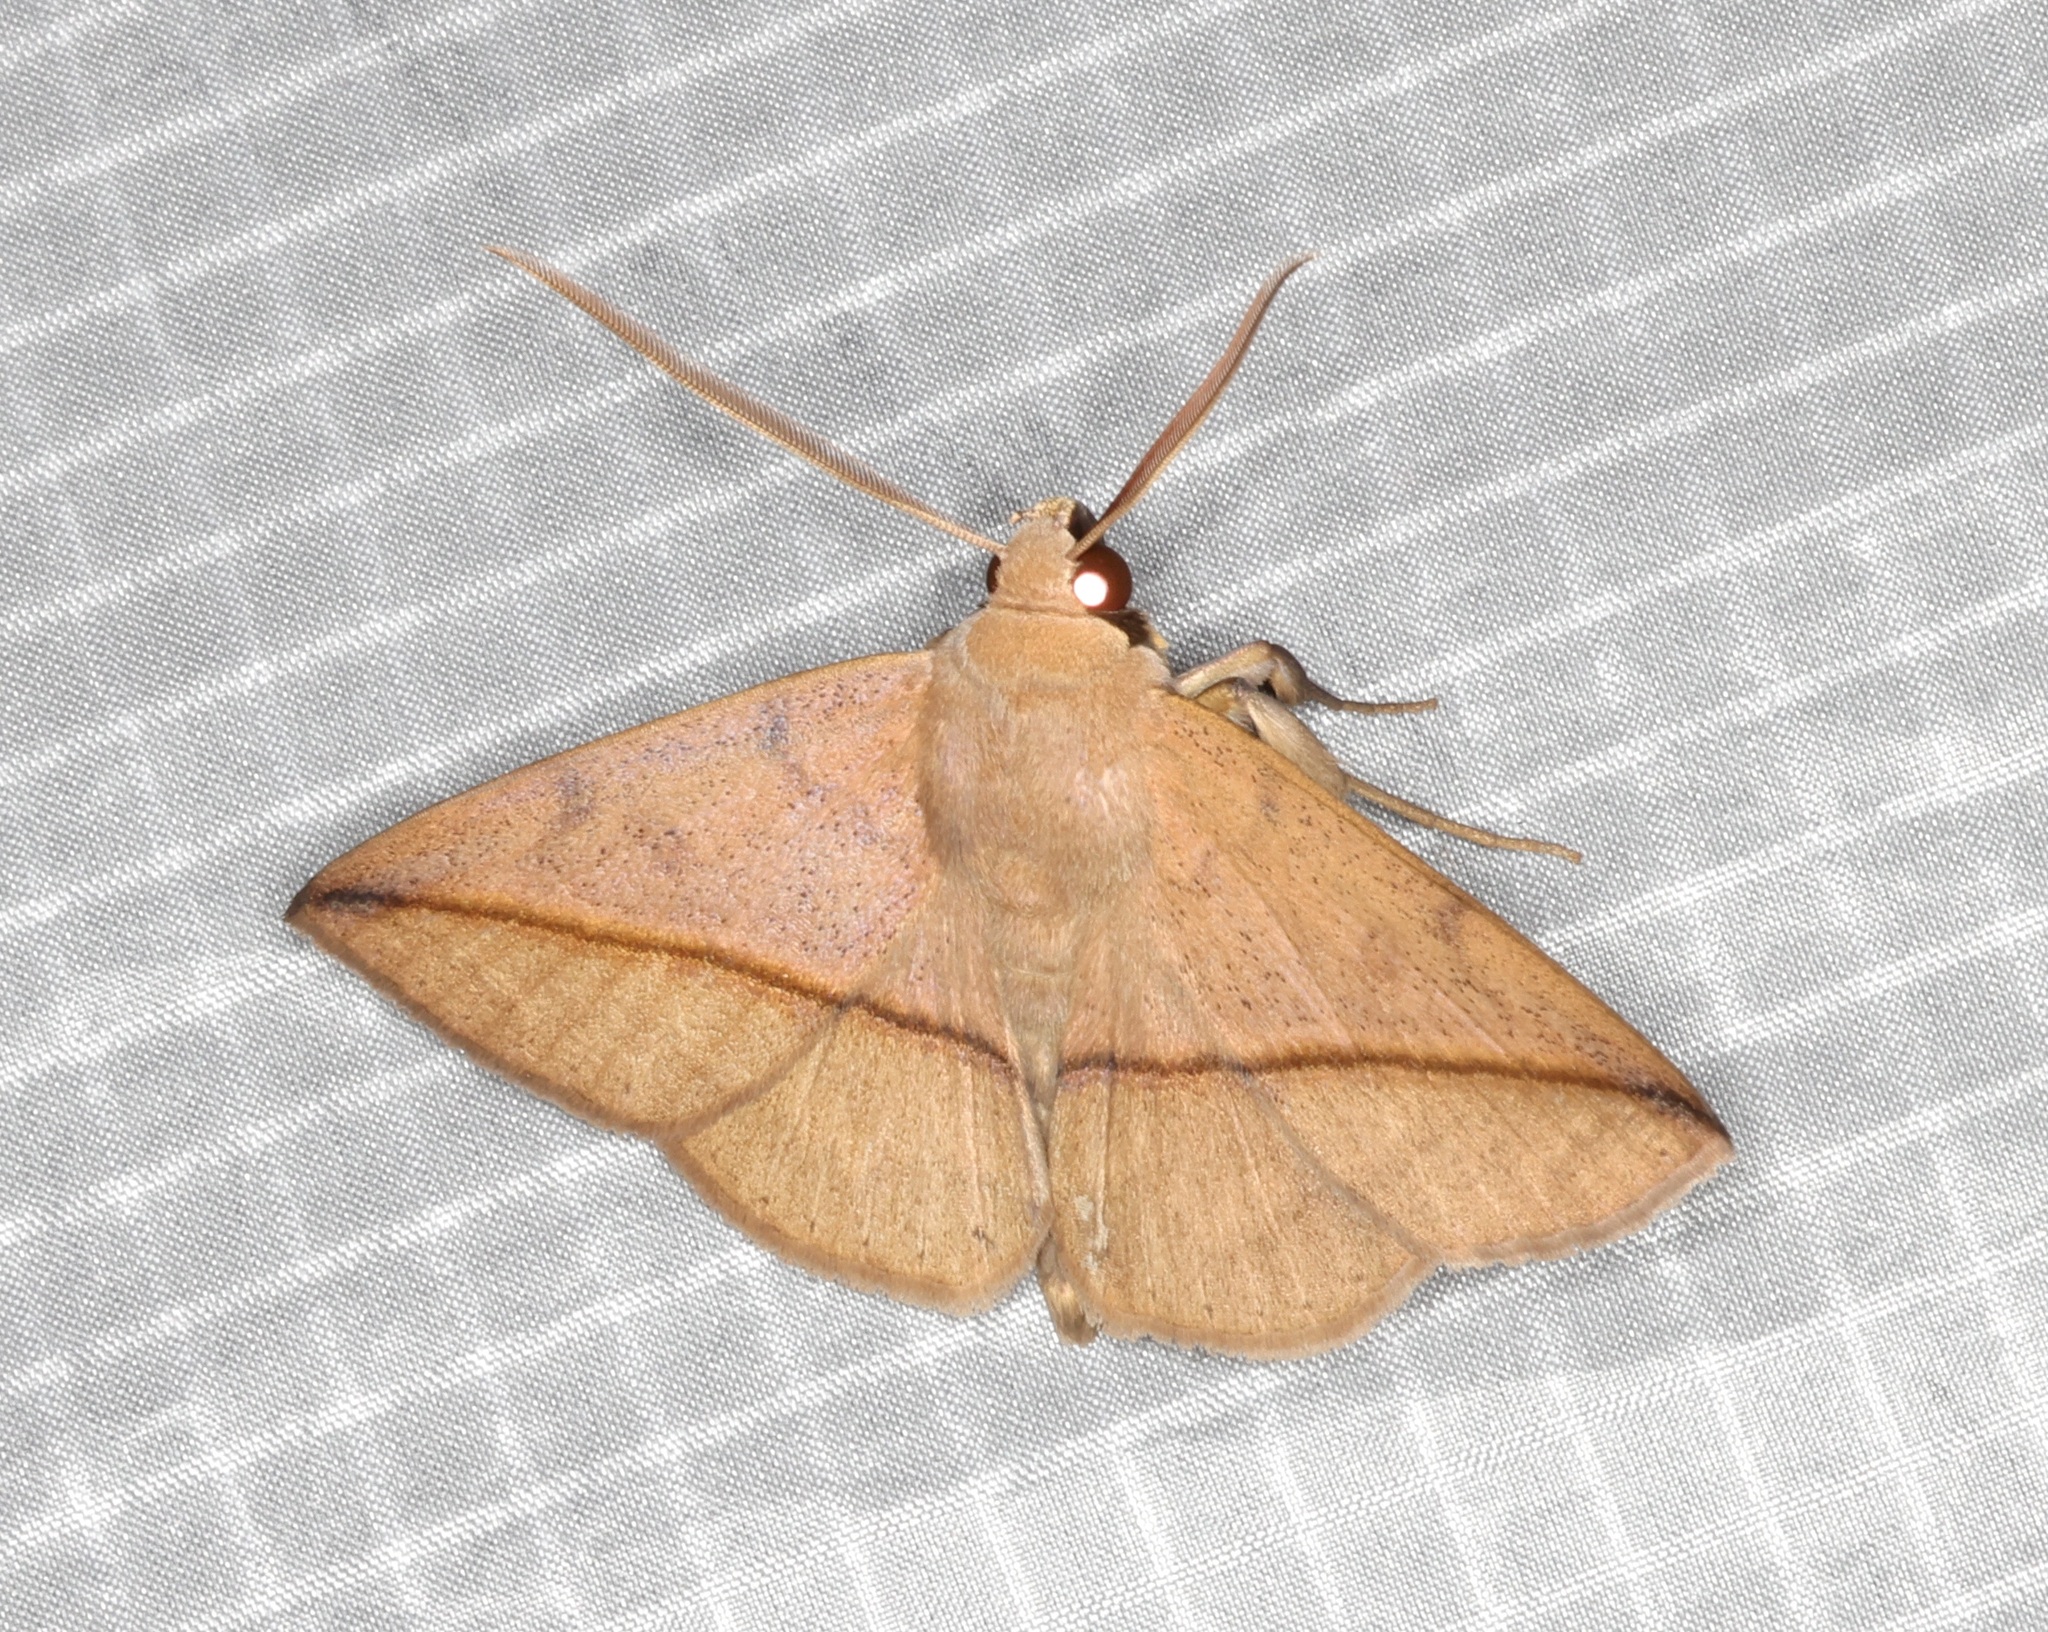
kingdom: Animalia
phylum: Arthropoda
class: Insecta
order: Lepidoptera
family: Erebidae
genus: Ugia
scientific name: Ugia purpurea
